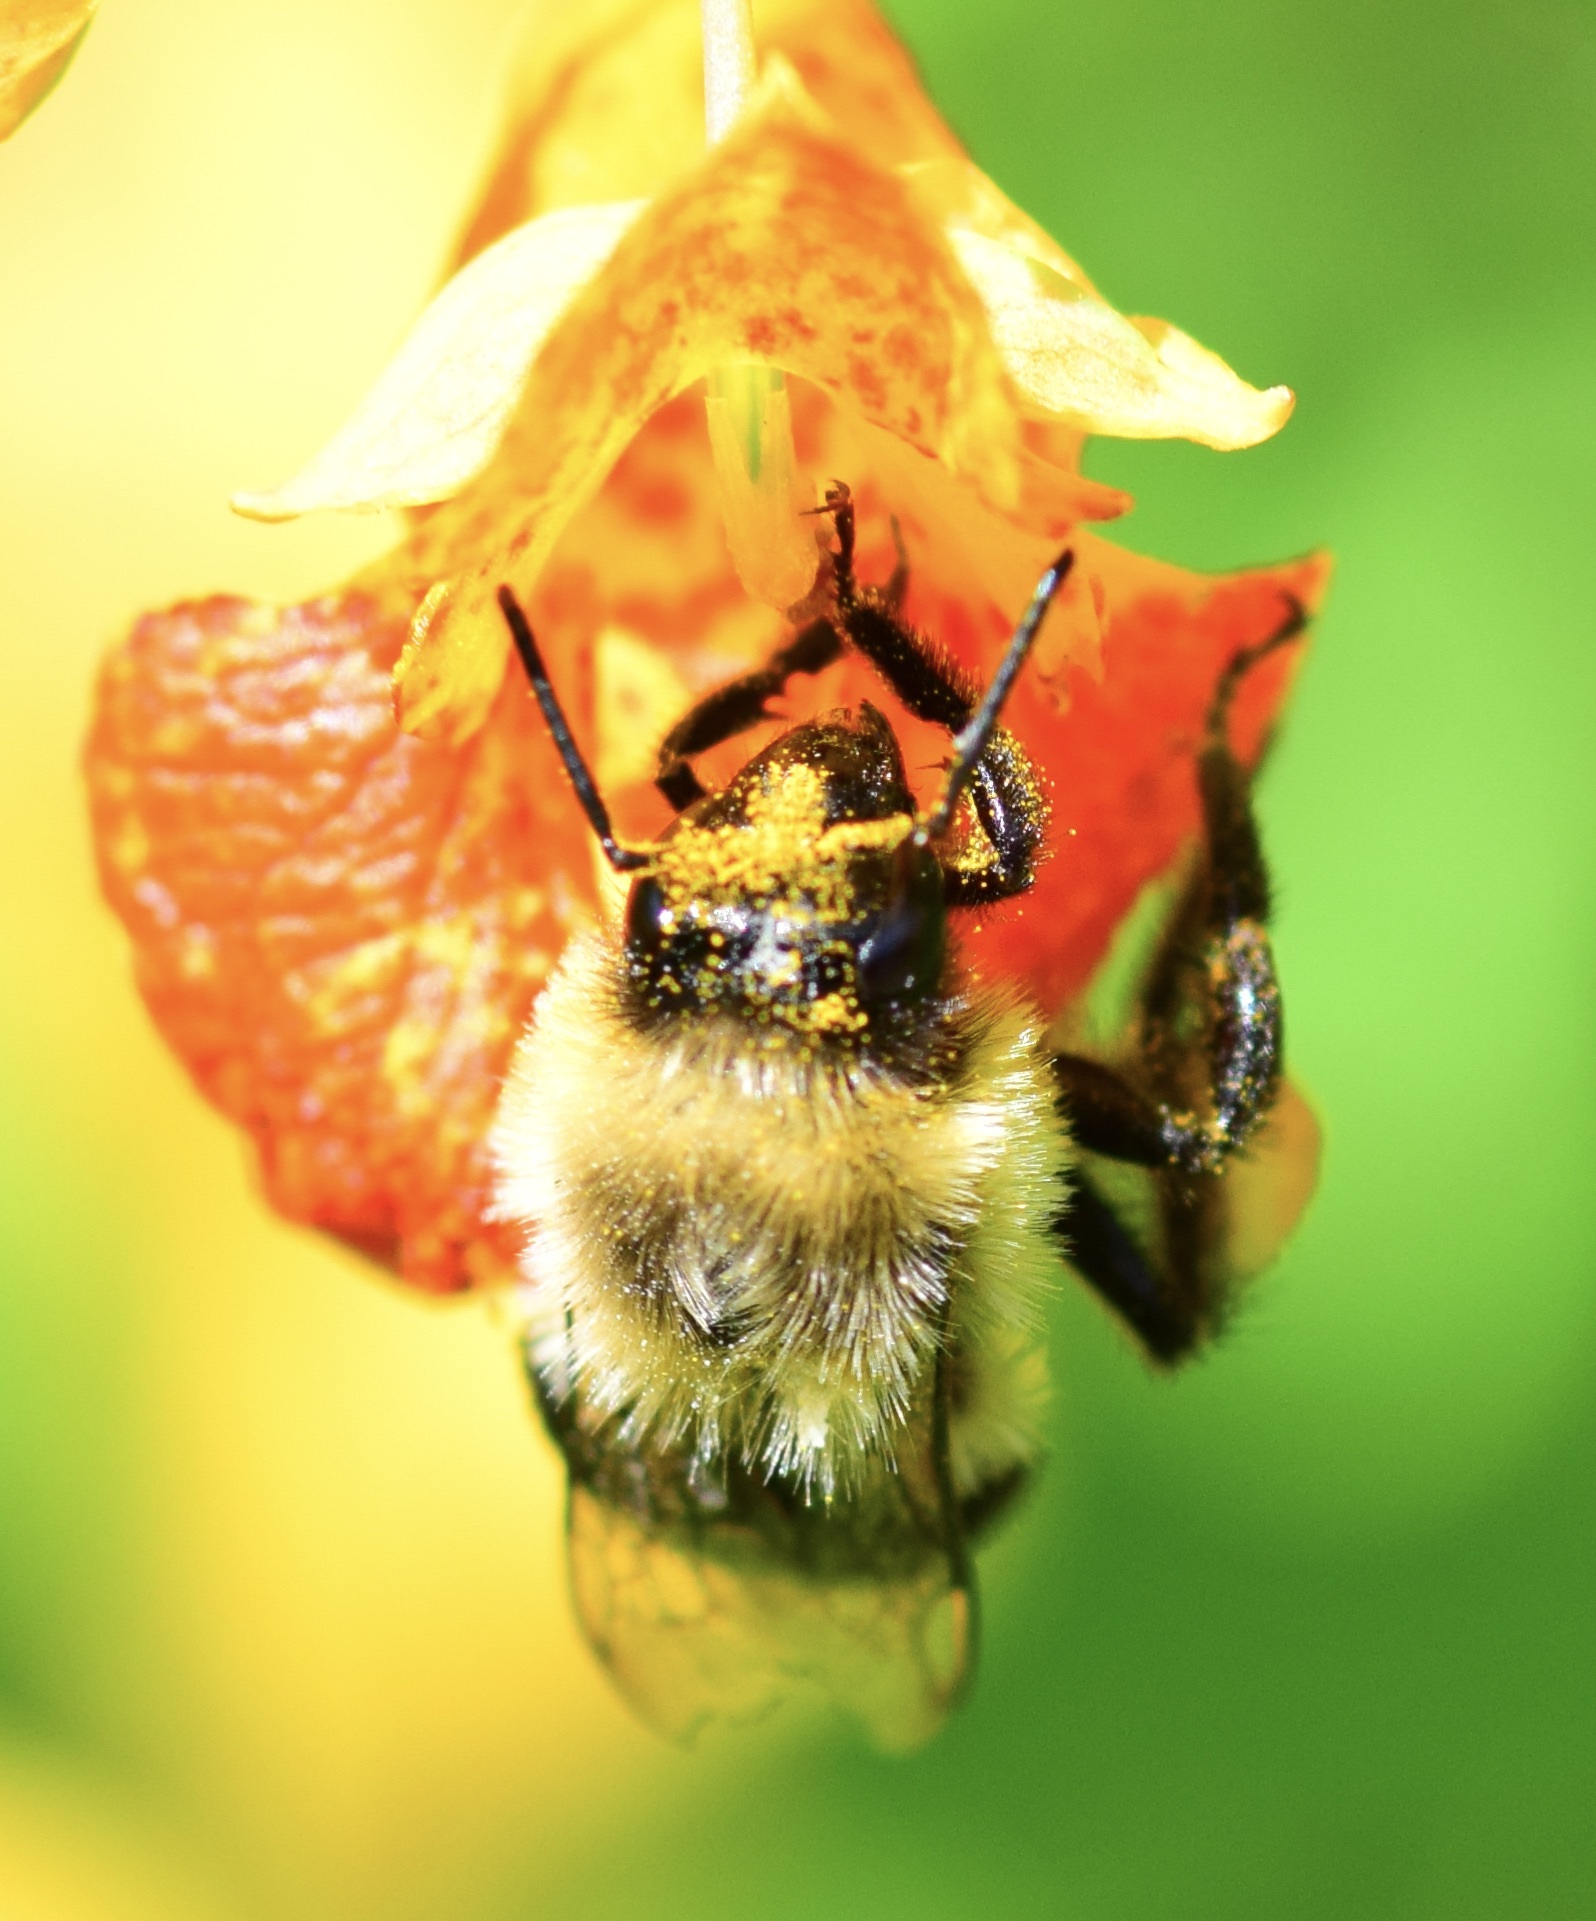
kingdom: Animalia
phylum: Arthropoda
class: Insecta
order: Hymenoptera
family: Apidae
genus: Bombus
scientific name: Bombus impatiens
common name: Common eastern bumble bee
